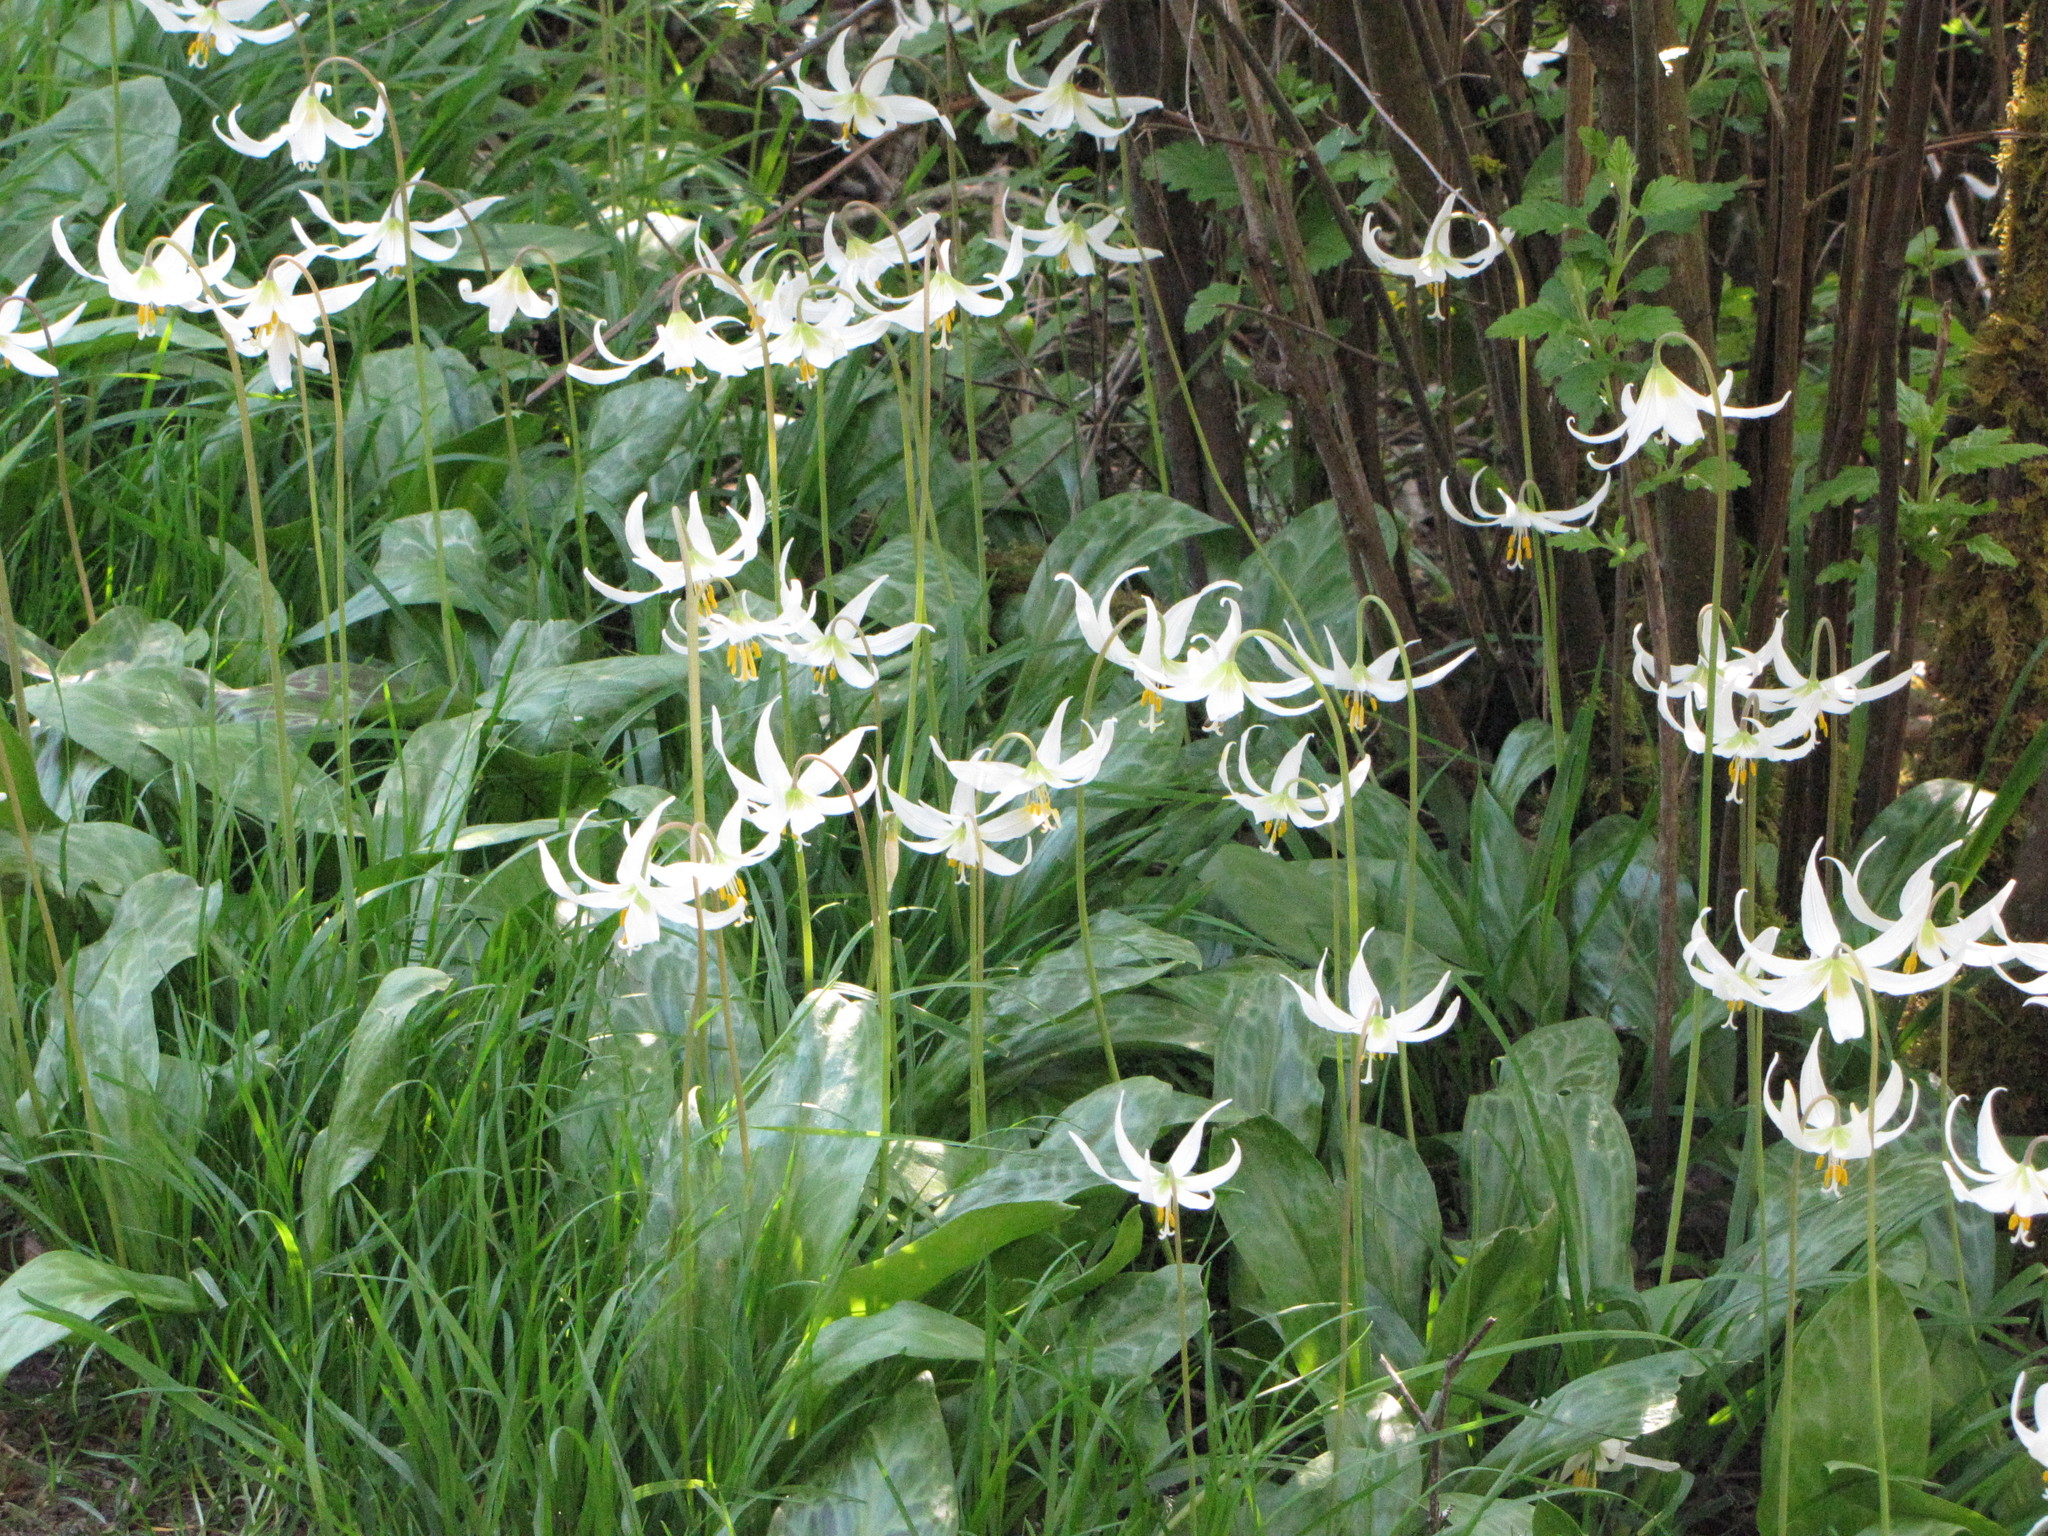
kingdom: Plantae
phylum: Tracheophyta
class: Liliopsida
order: Liliales
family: Liliaceae
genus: Erythronium
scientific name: Erythronium oregonum
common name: Giant adder's-tongue
